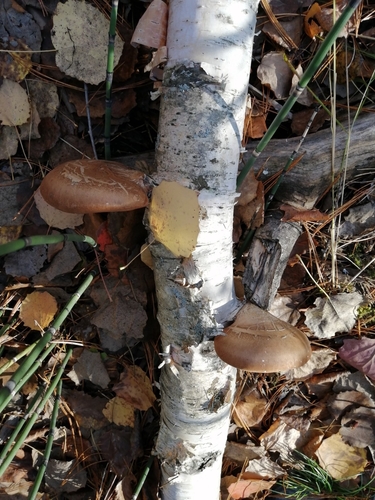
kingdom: Fungi
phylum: Basidiomycota
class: Agaricomycetes
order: Polyporales
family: Fomitopsidaceae
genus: Fomitopsis
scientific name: Fomitopsis betulina
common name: Birch polypore
